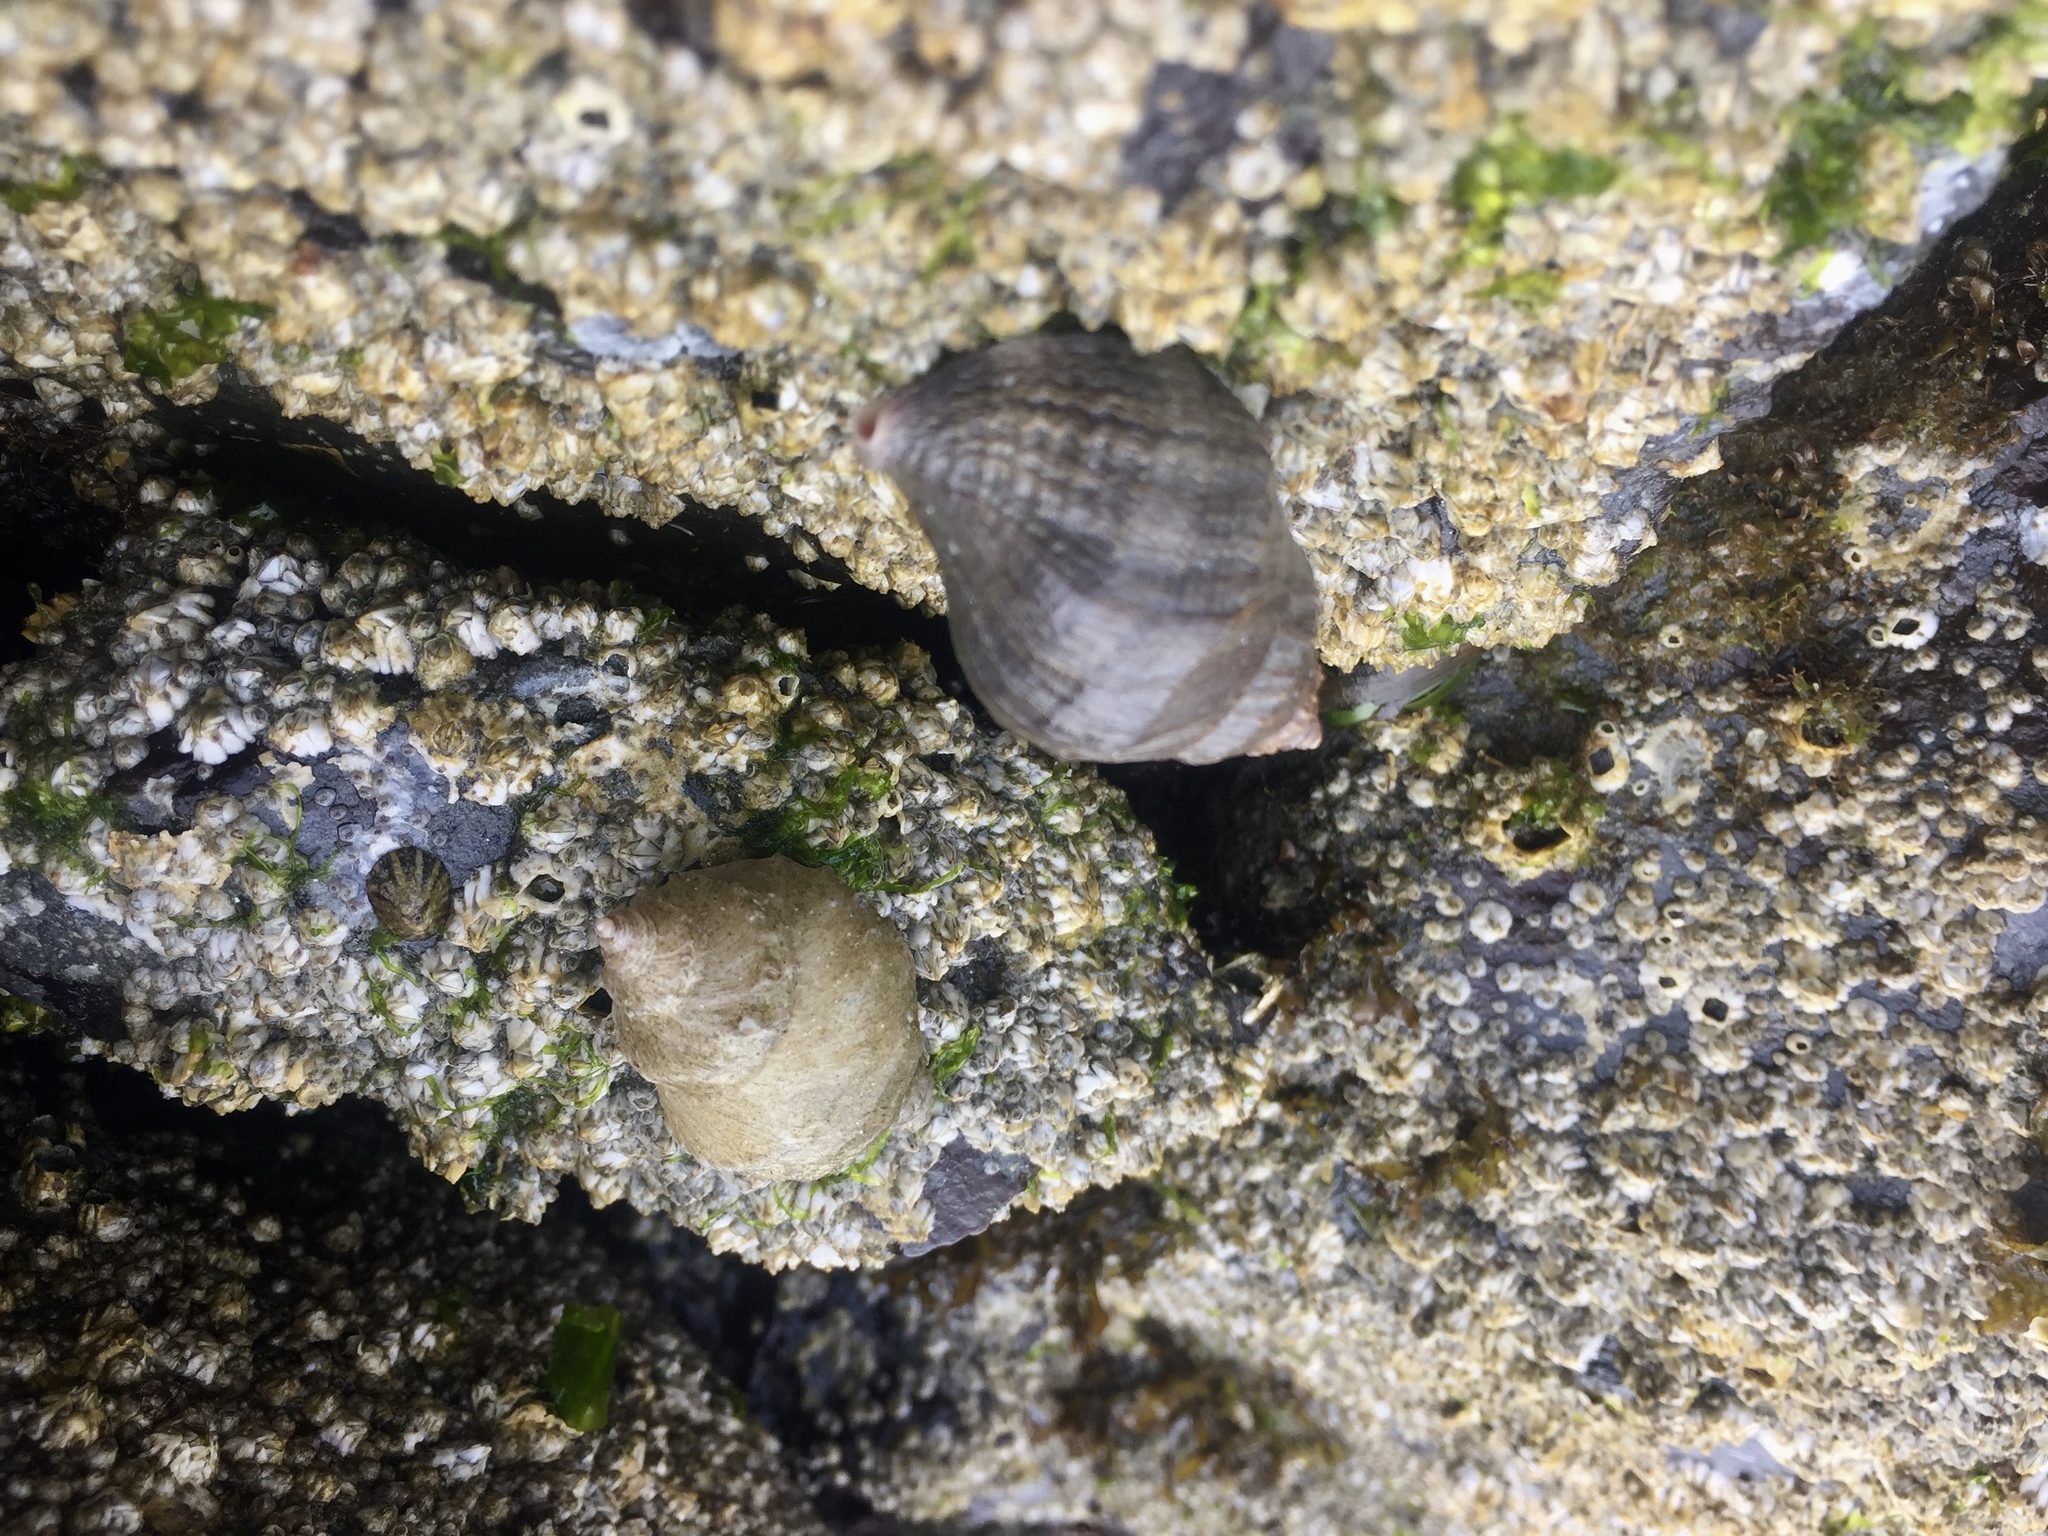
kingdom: Animalia
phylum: Mollusca
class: Gastropoda
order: Neogastropoda
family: Muricidae
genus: Nucella
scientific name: Nucella lamellosa
